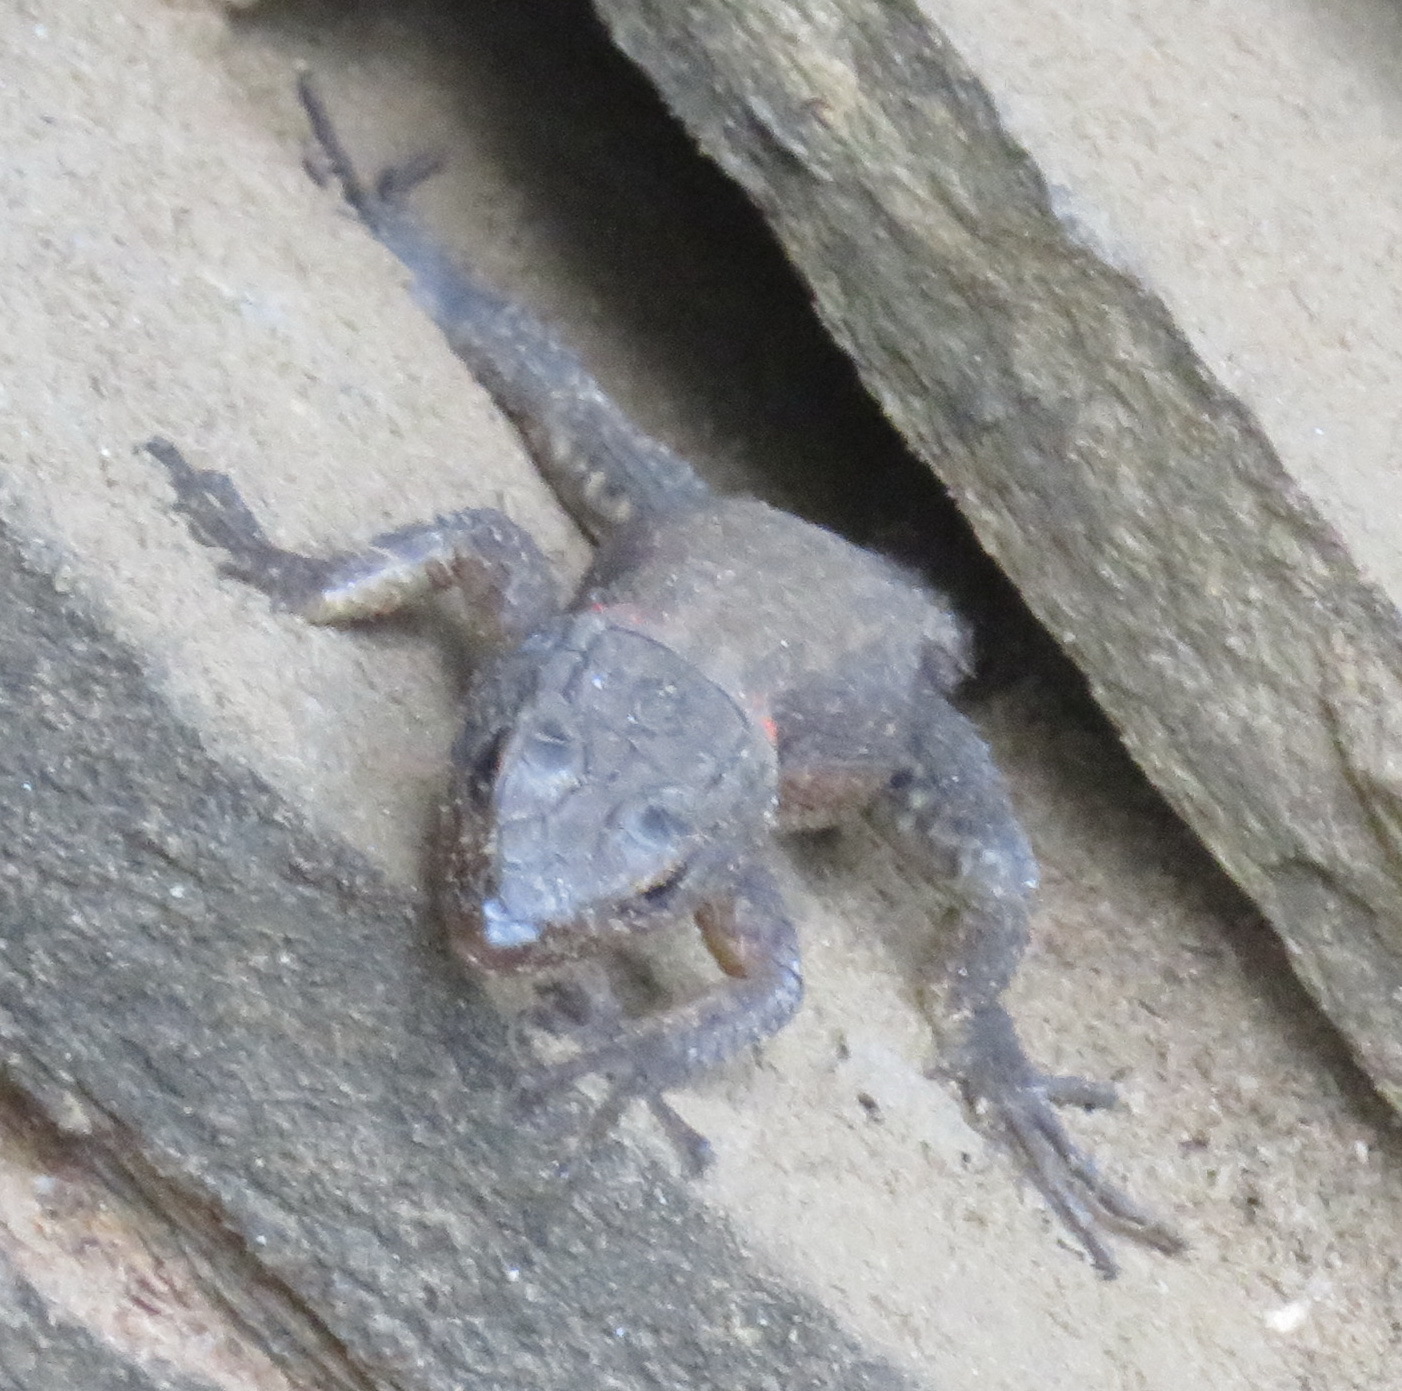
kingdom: Animalia
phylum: Chordata
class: Squamata
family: Cordylidae
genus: Ninurta
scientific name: Ninurta coeruleopunctatus
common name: Blue-spotted girdled lizard
